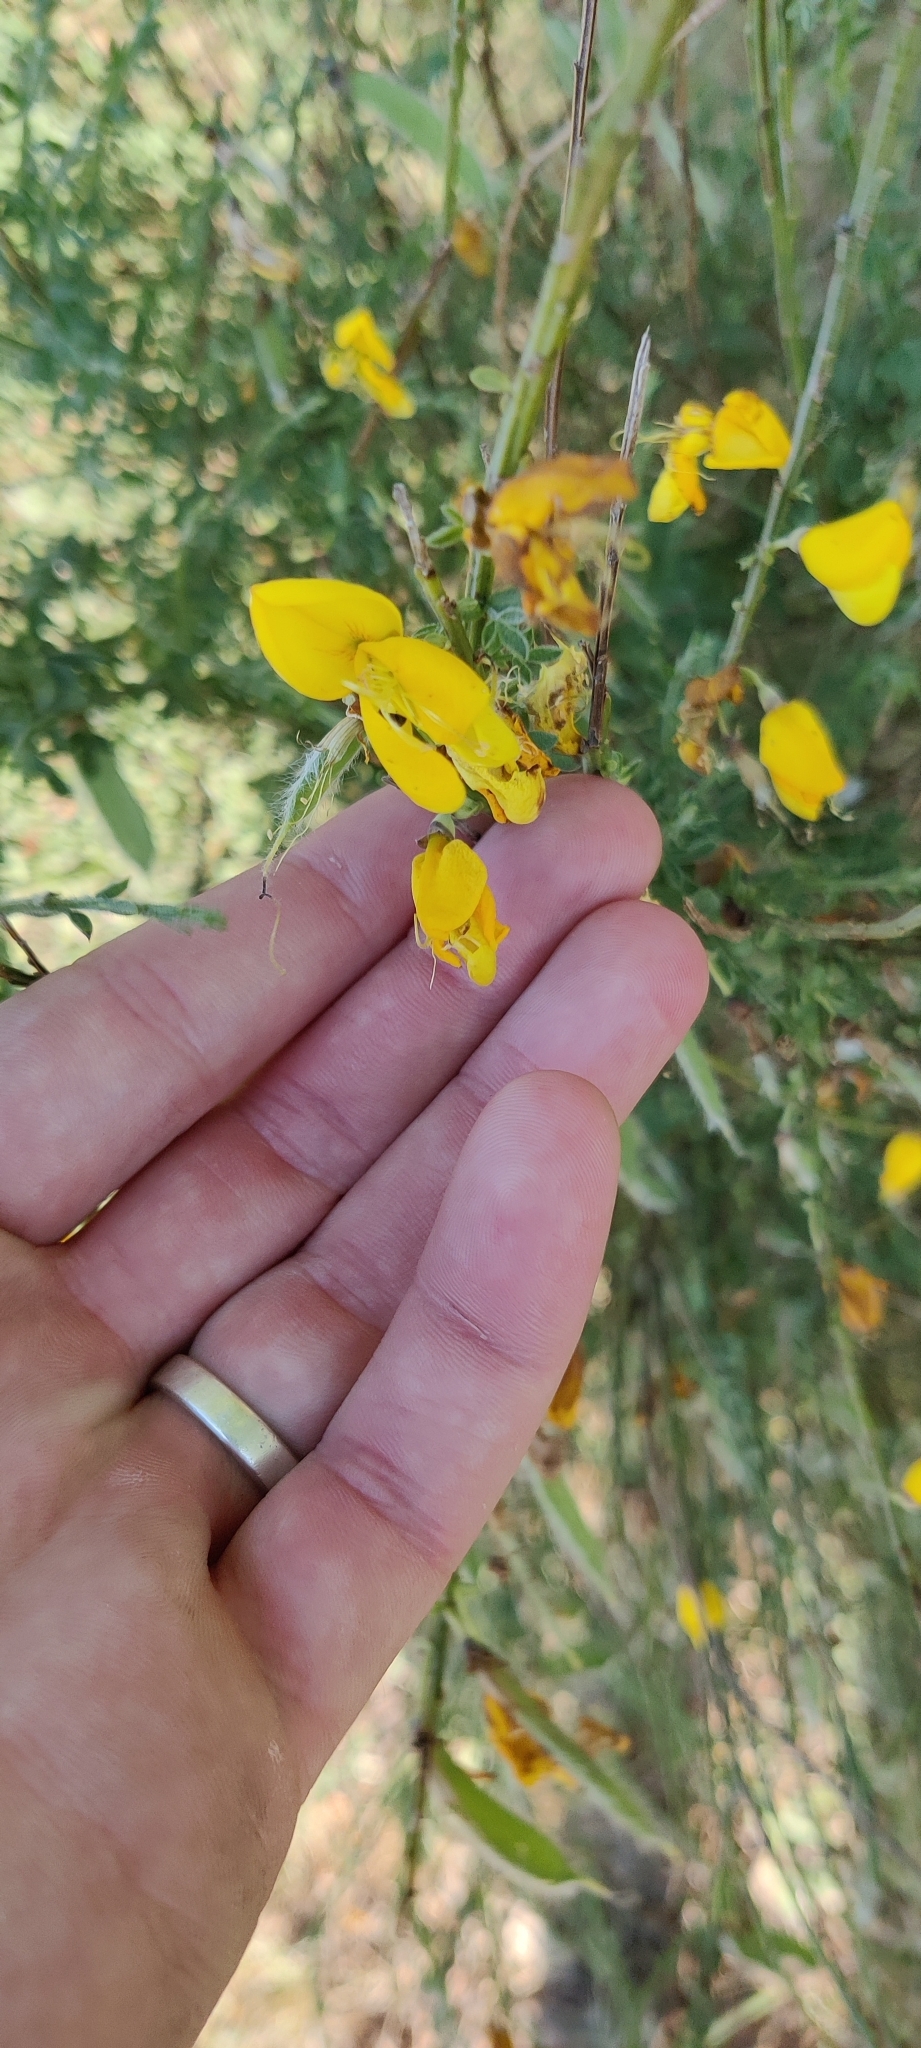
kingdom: Plantae
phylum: Tracheophyta
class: Magnoliopsida
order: Fabales
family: Fabaceae
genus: Cytisus
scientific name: Cytisus scoparius
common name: Scotch broom
